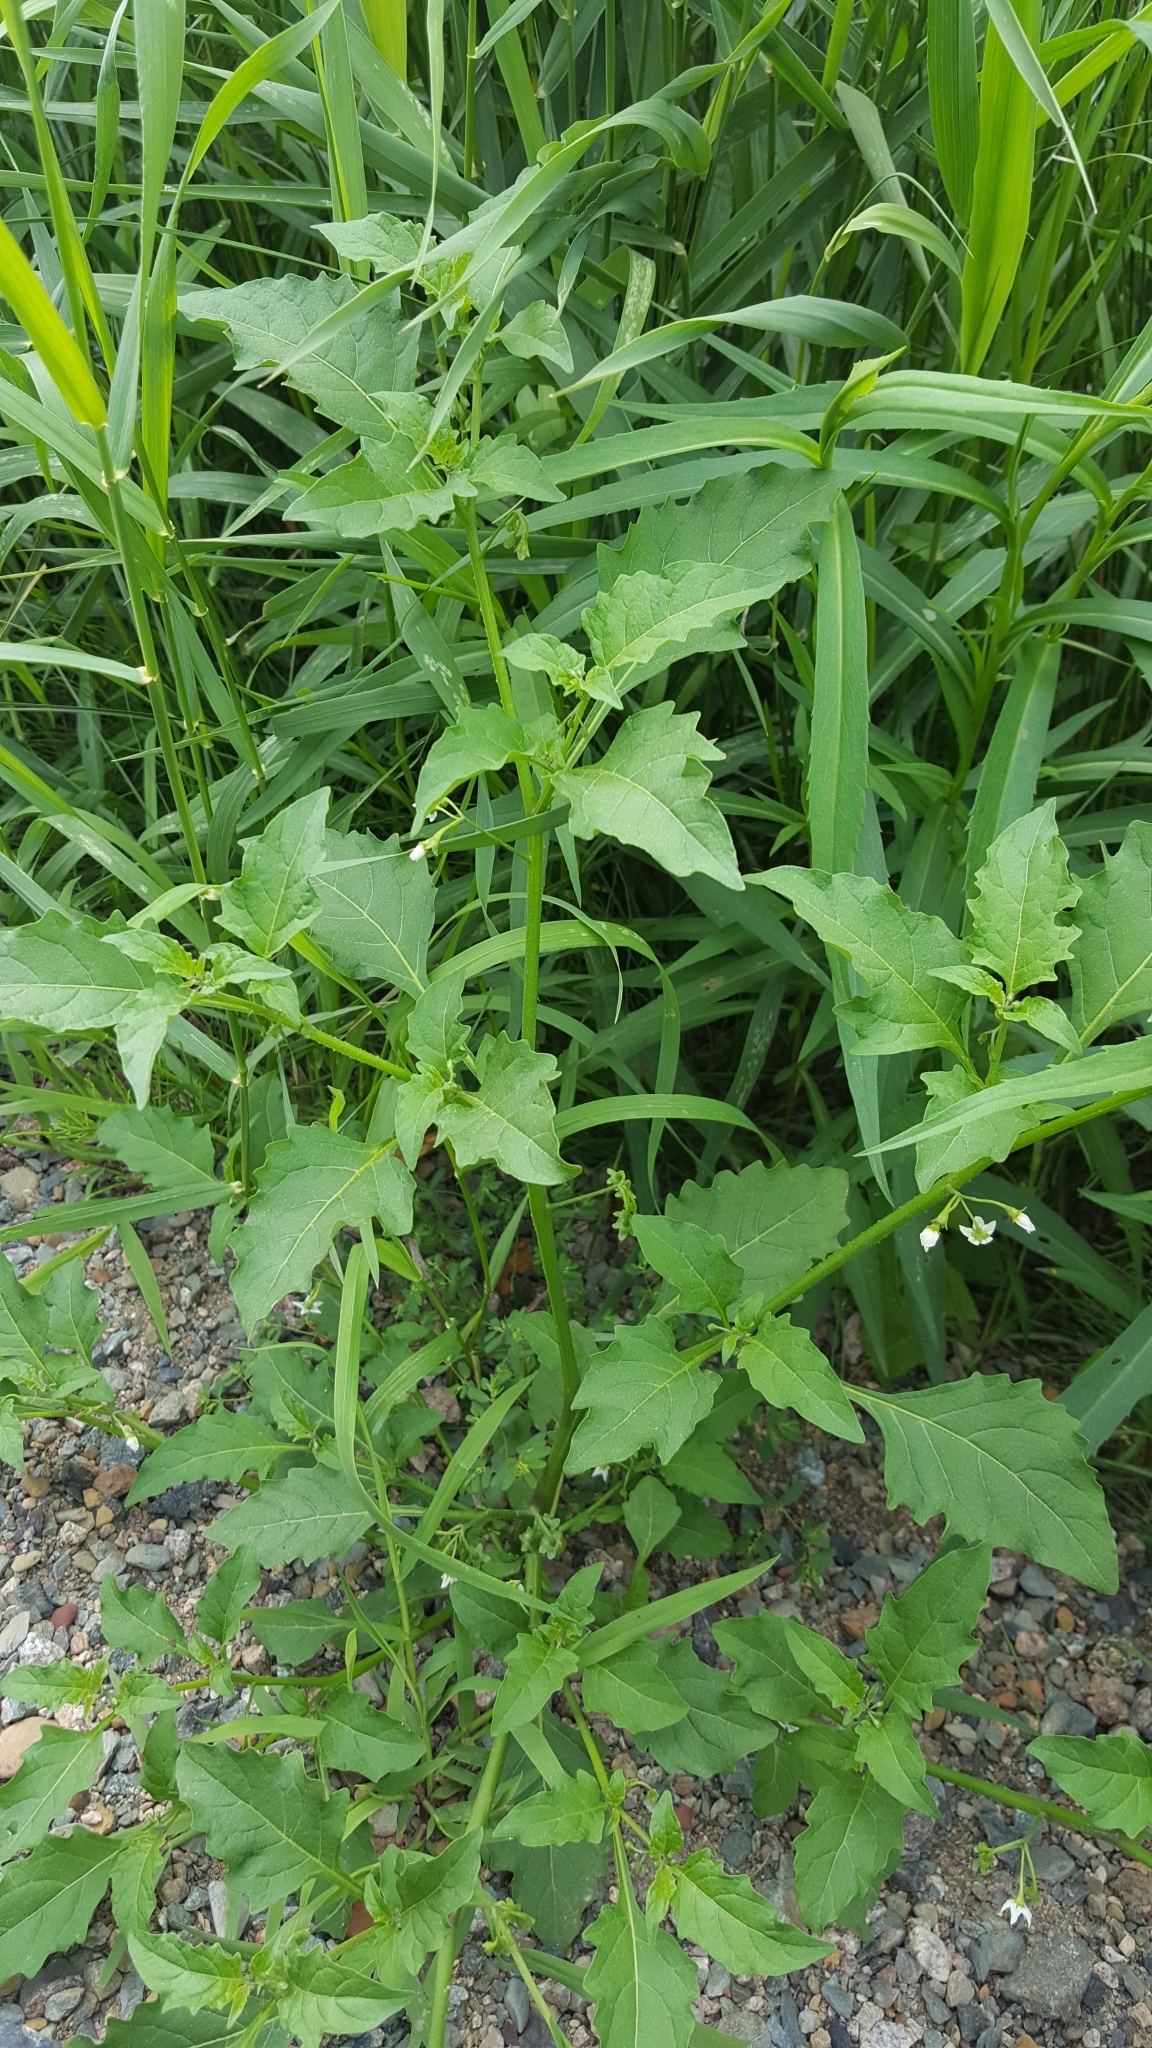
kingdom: Plantae
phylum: Tracheophyta
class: Magnoliopsida
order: Solanales
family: Solanaceae
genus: Solanum
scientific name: Solanum emulans
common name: Eastern black nightshade
